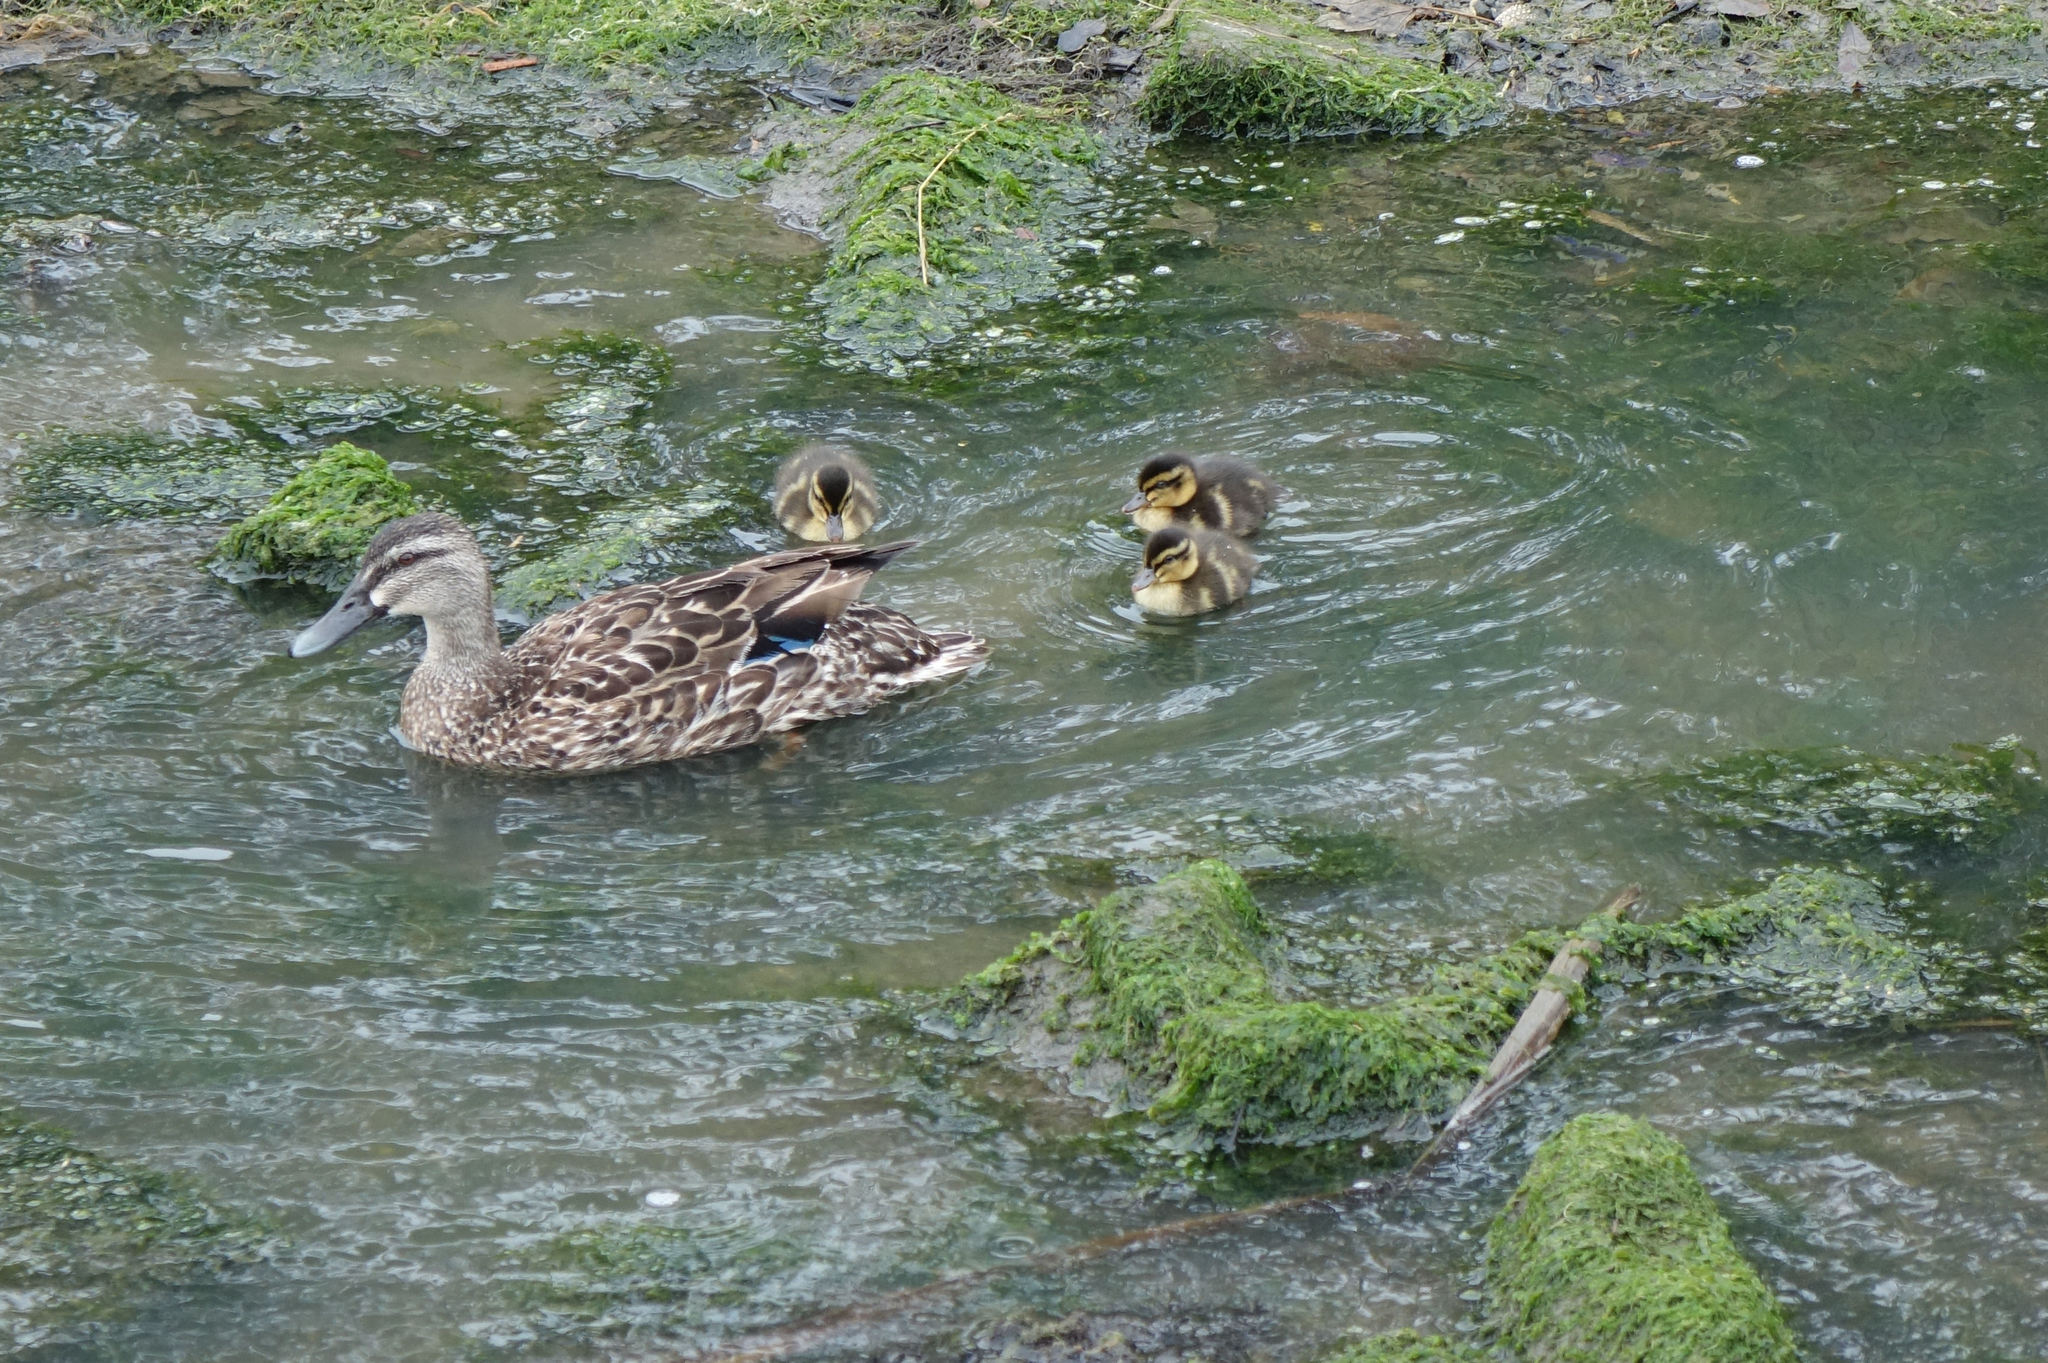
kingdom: Animalia
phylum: Chordata
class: Aves
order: Anseriformes
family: Anatidae
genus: Anas
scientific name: Anas
